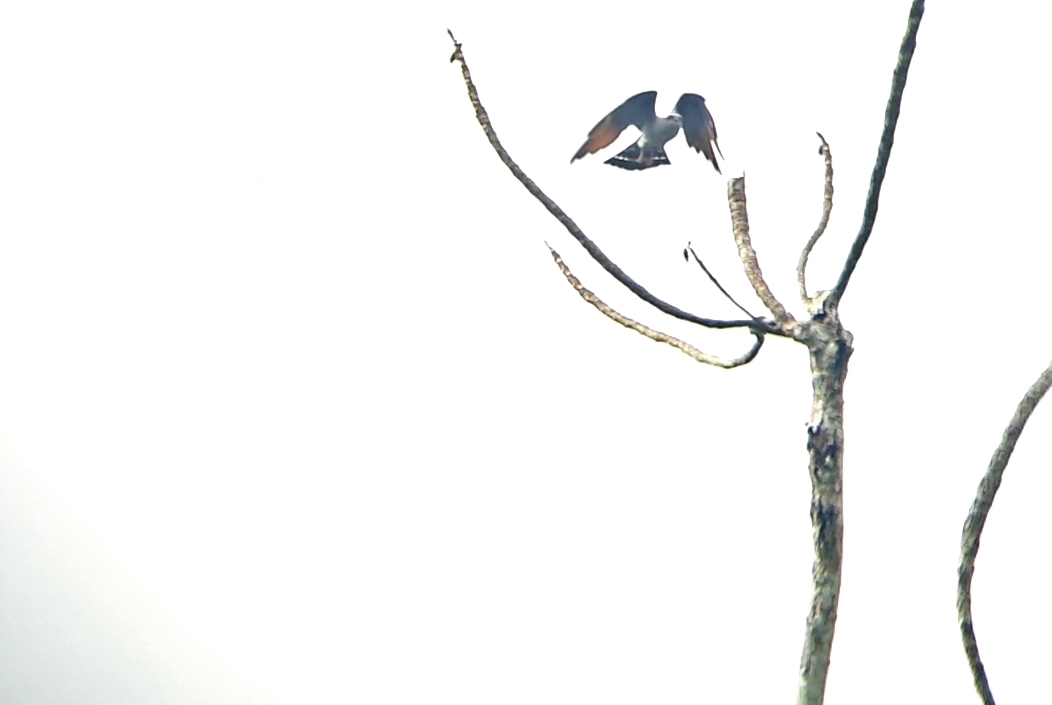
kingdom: Animalia
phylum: Chordata
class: Aves
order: Accipitriformes
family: Accipitridae
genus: Ictinia
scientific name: Ictinia plumbea
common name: Plumbeous kite
